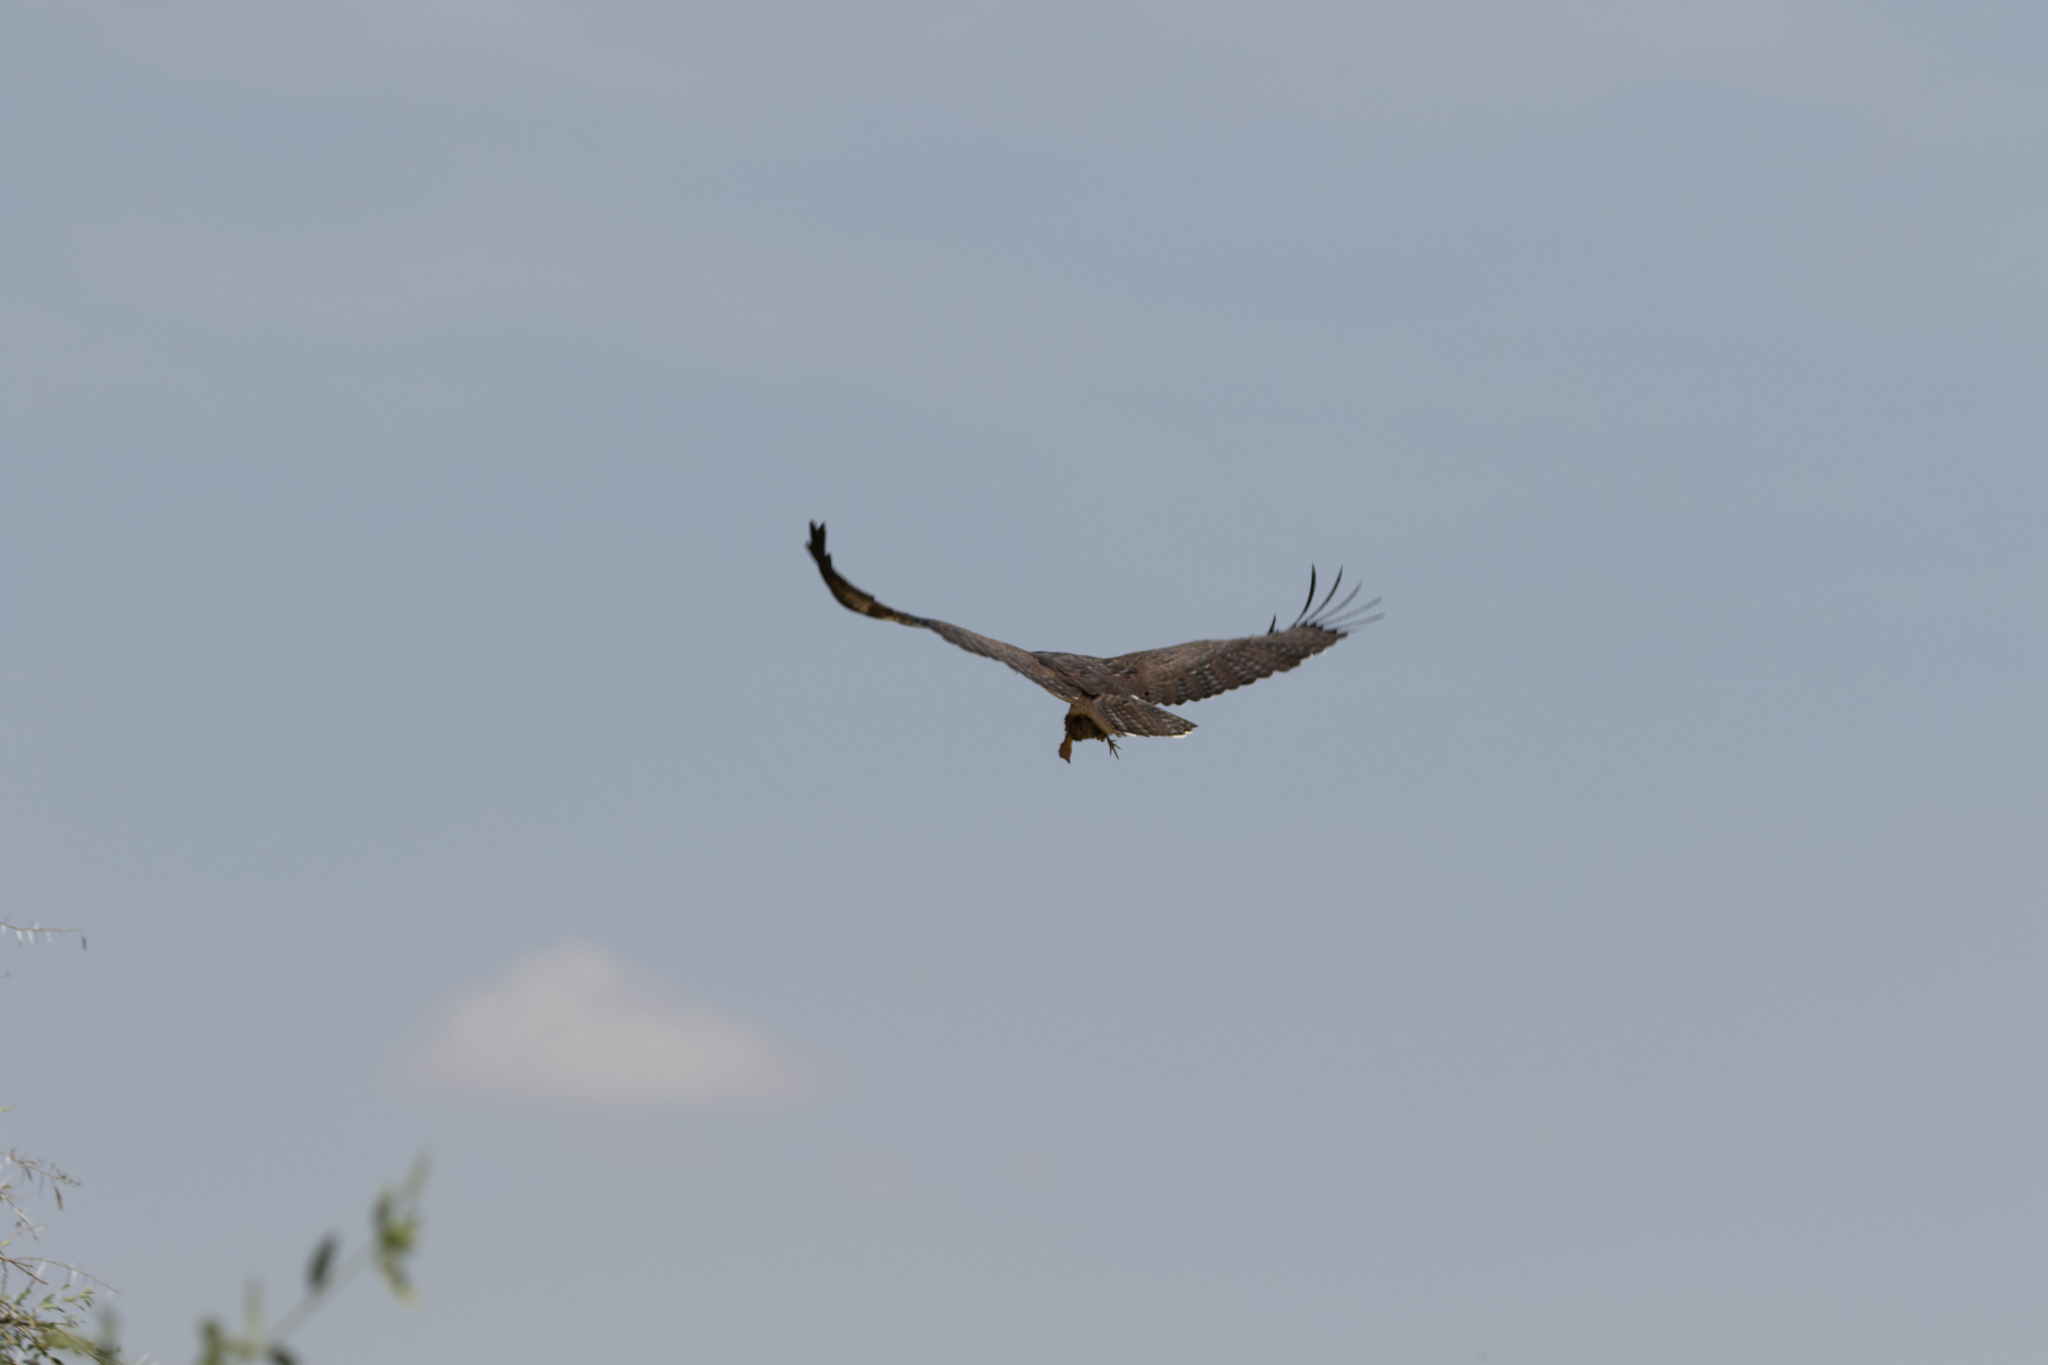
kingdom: Animalia
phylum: Chordata
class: Aves
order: Accipitriformes
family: Accipitridae
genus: Polemaetus
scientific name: Polemaetus bellicosus
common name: Martial eagle
